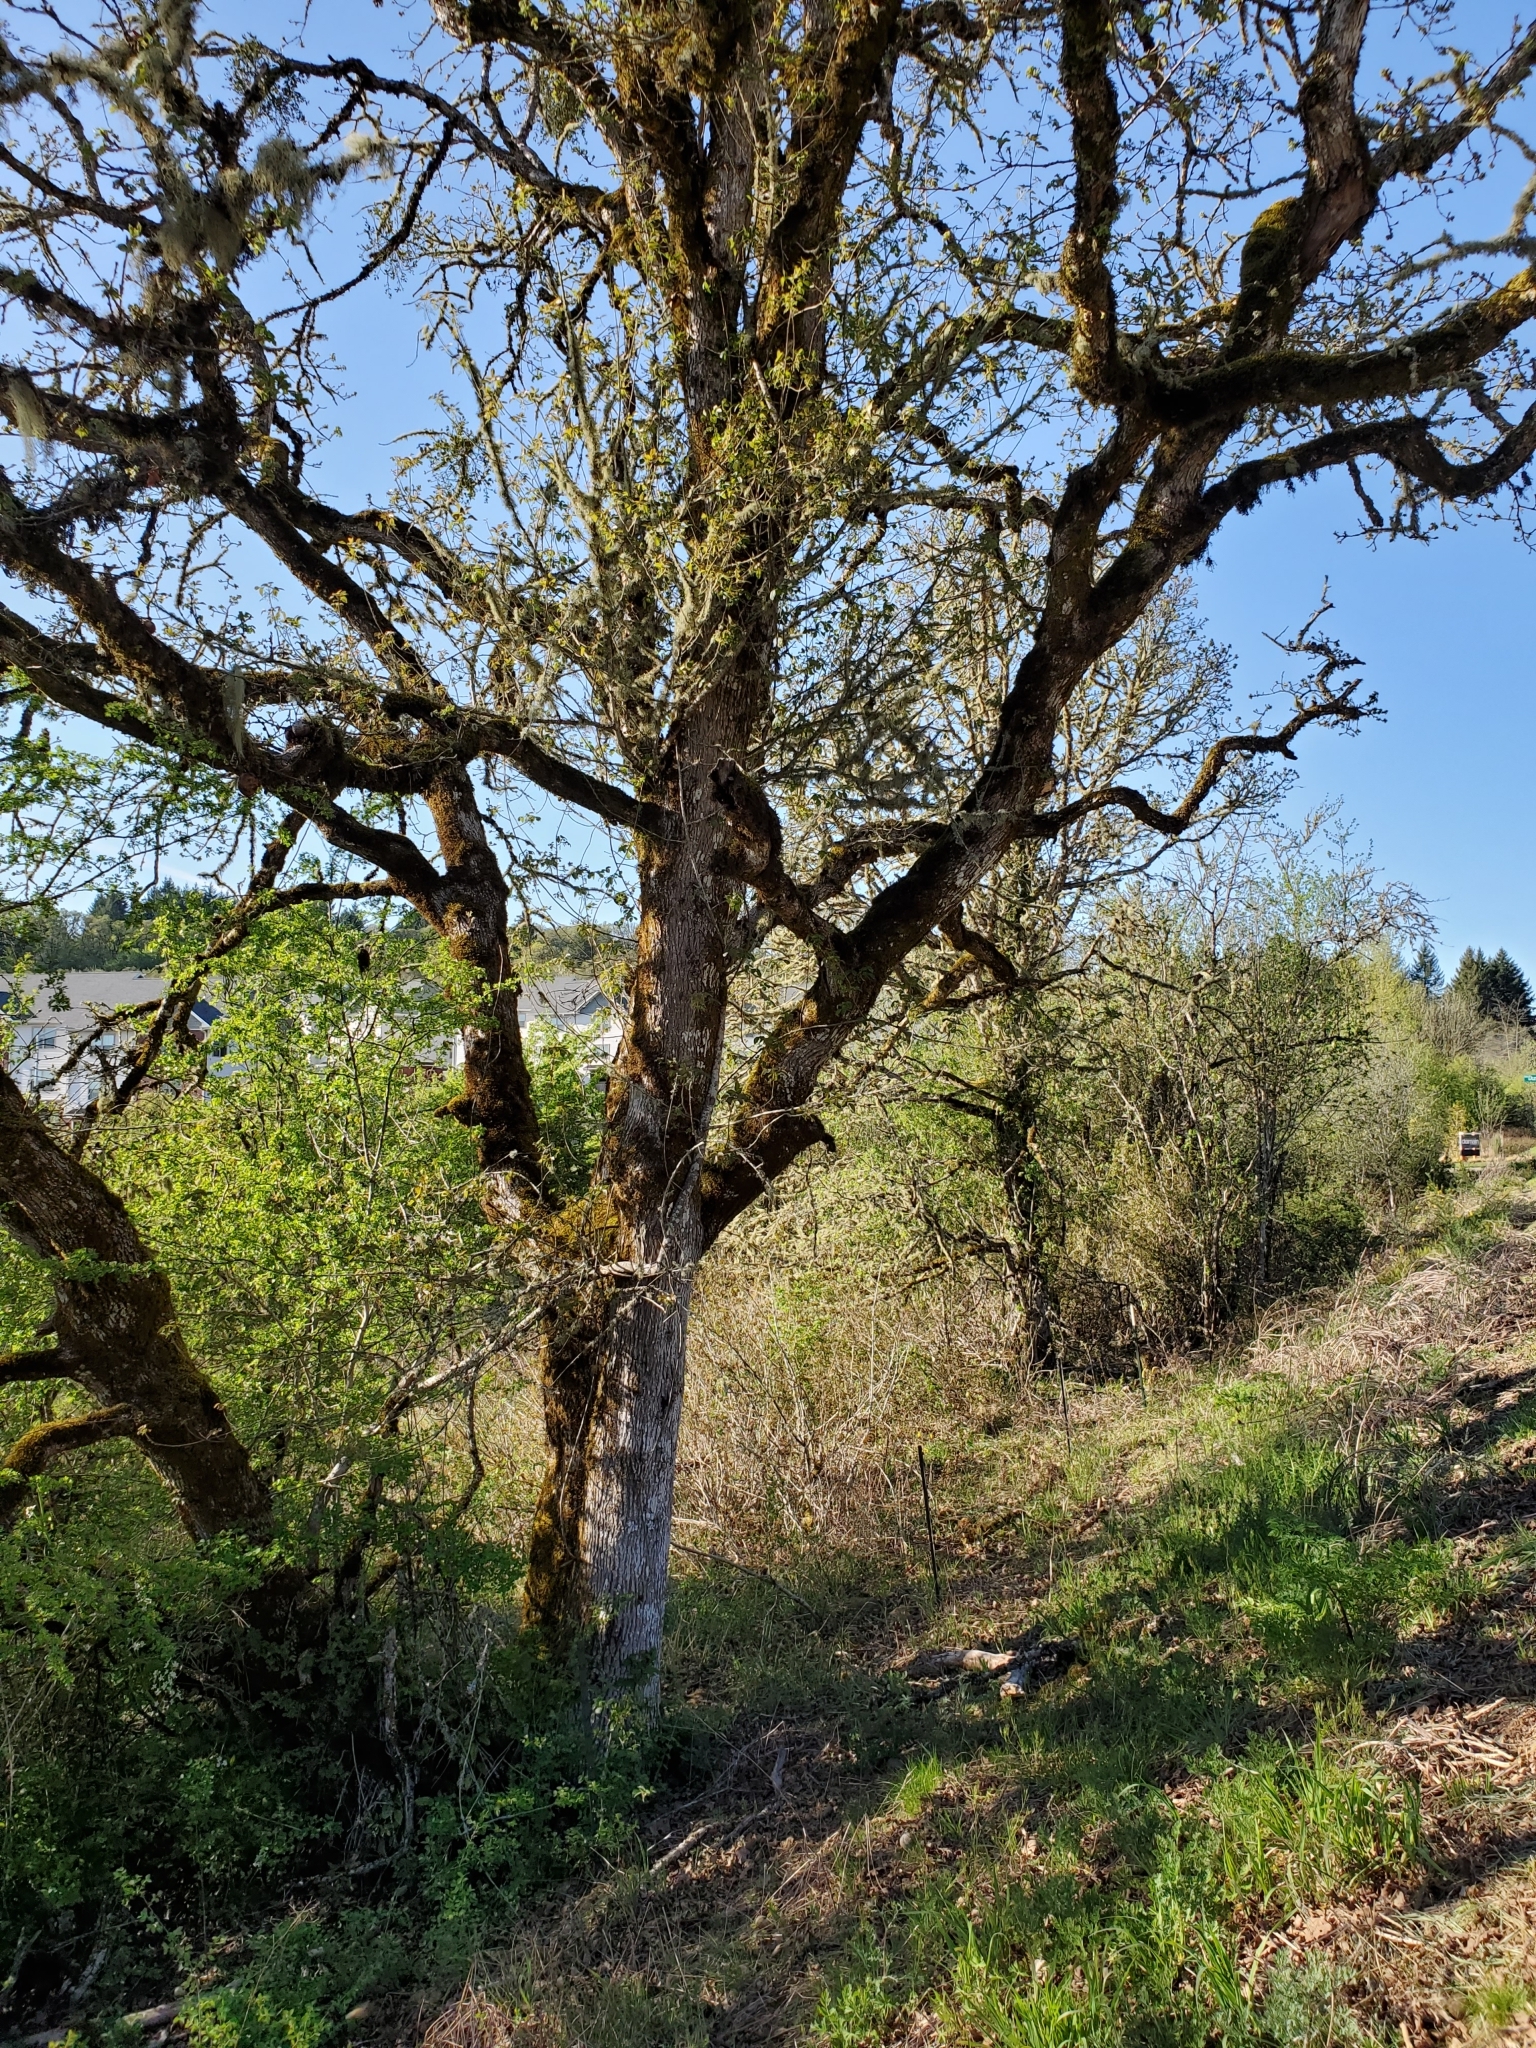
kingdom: Plantae
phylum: Tracheophyta
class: Magnoliopsida
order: Fagales
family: Fagaceae
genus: Quercus
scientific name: Quercus garryana
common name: Garry oak
